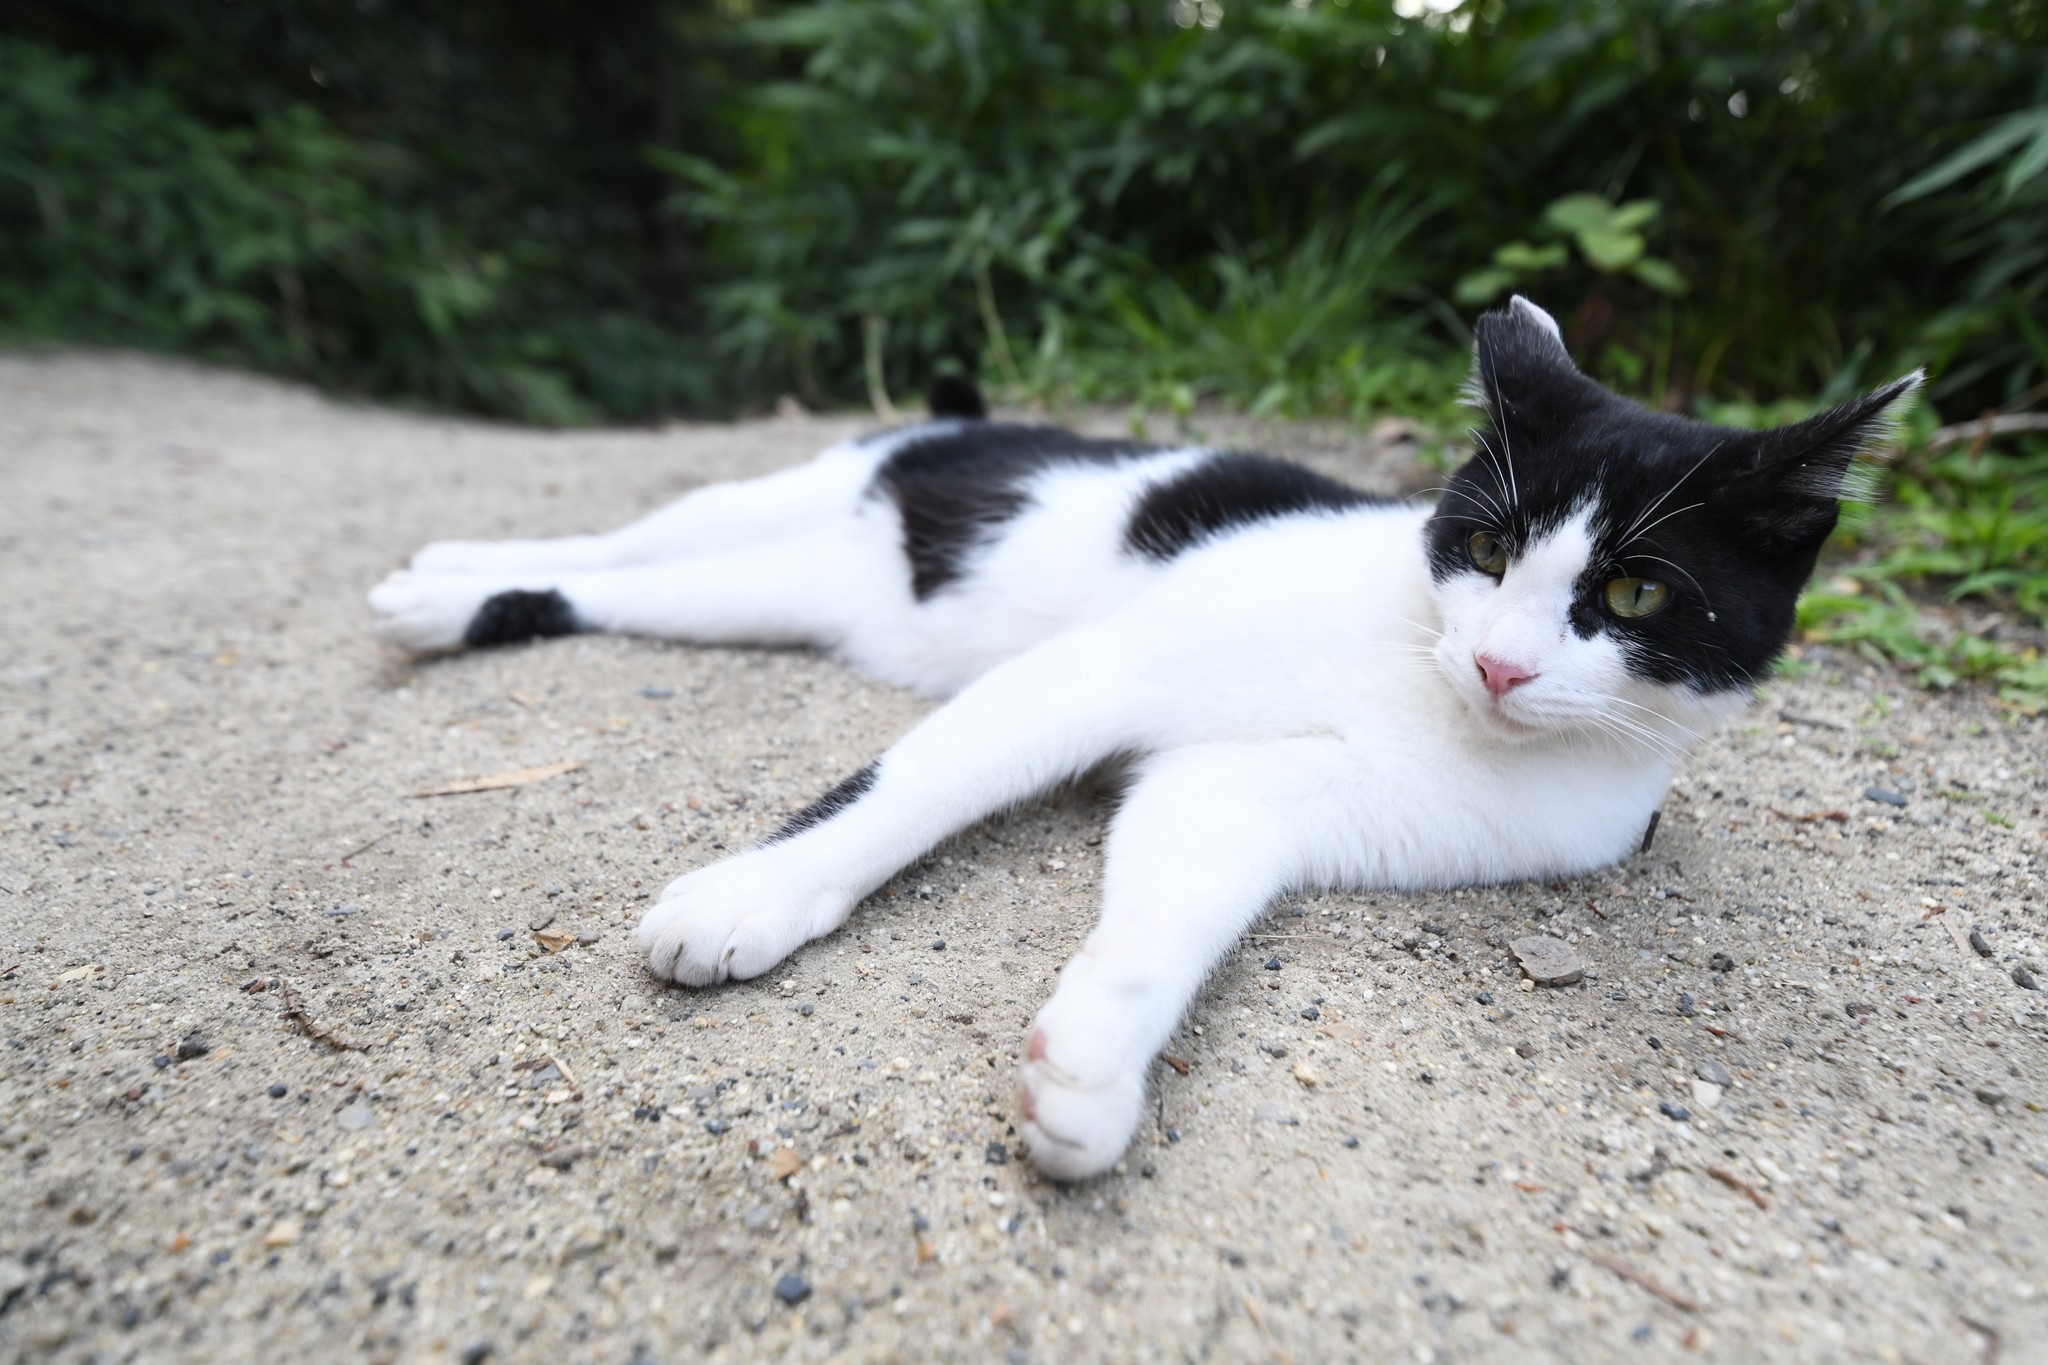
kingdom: Animalia
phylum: Chordata
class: Mammalia
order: Carnivora
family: Felidae
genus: Felis
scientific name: Felis catus
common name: Domestic cat
